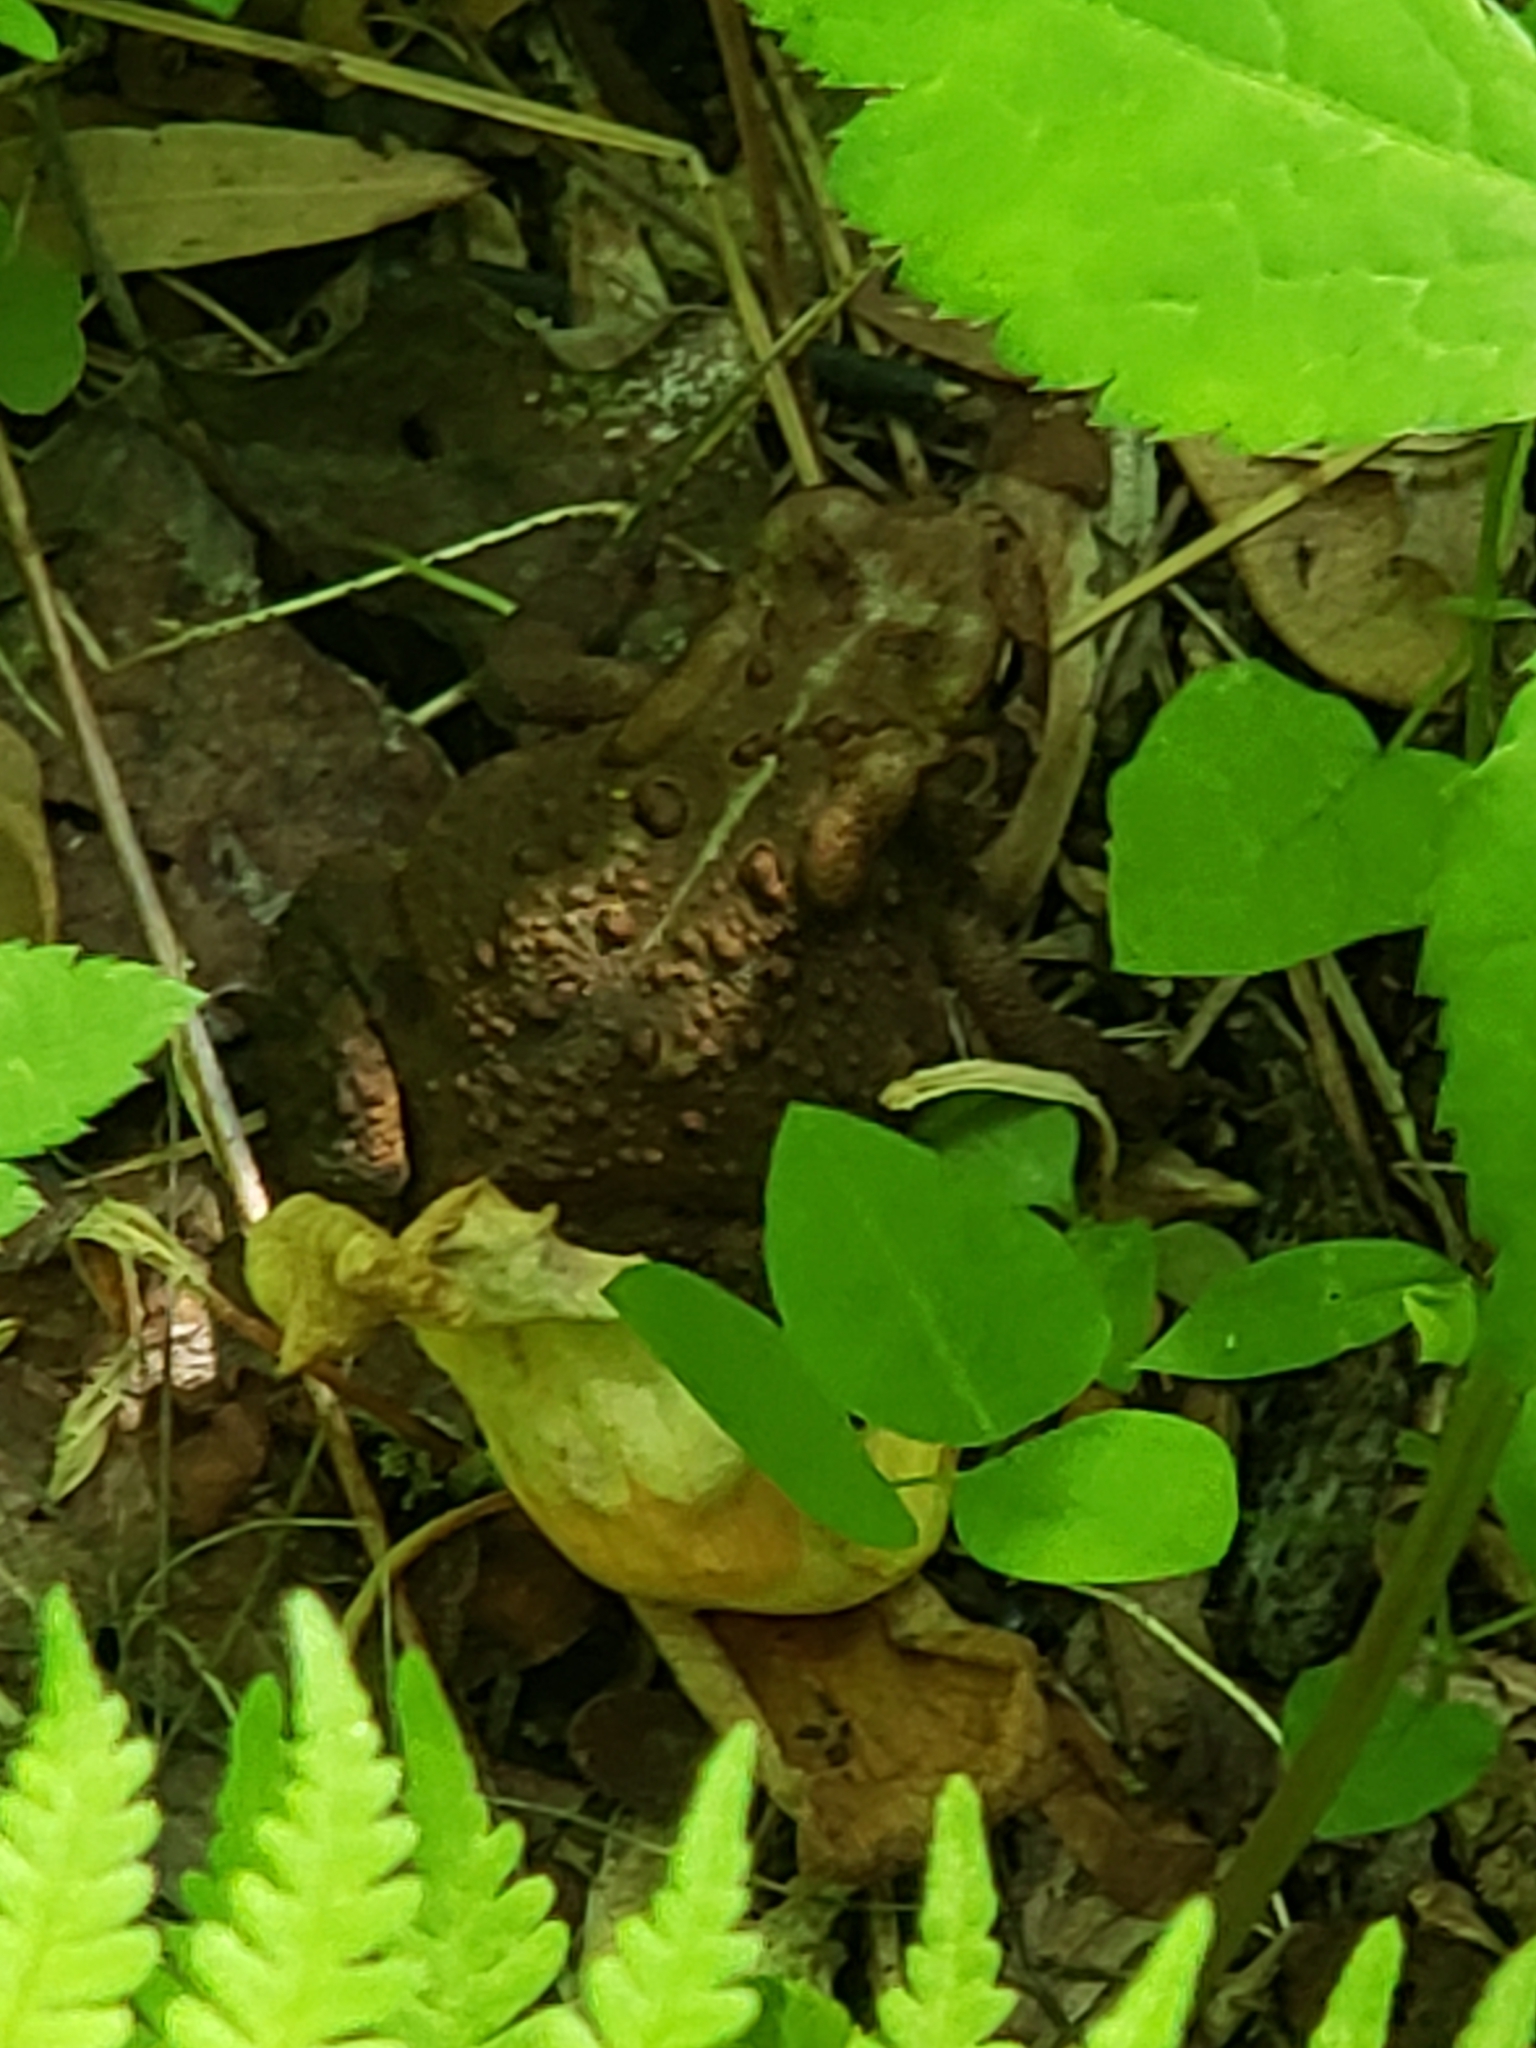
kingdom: Animalia
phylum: Chordata
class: Amphibia
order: Anura
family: Bufonidae
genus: Anaxyrus
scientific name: Anaxyrus americanus
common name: American toad
